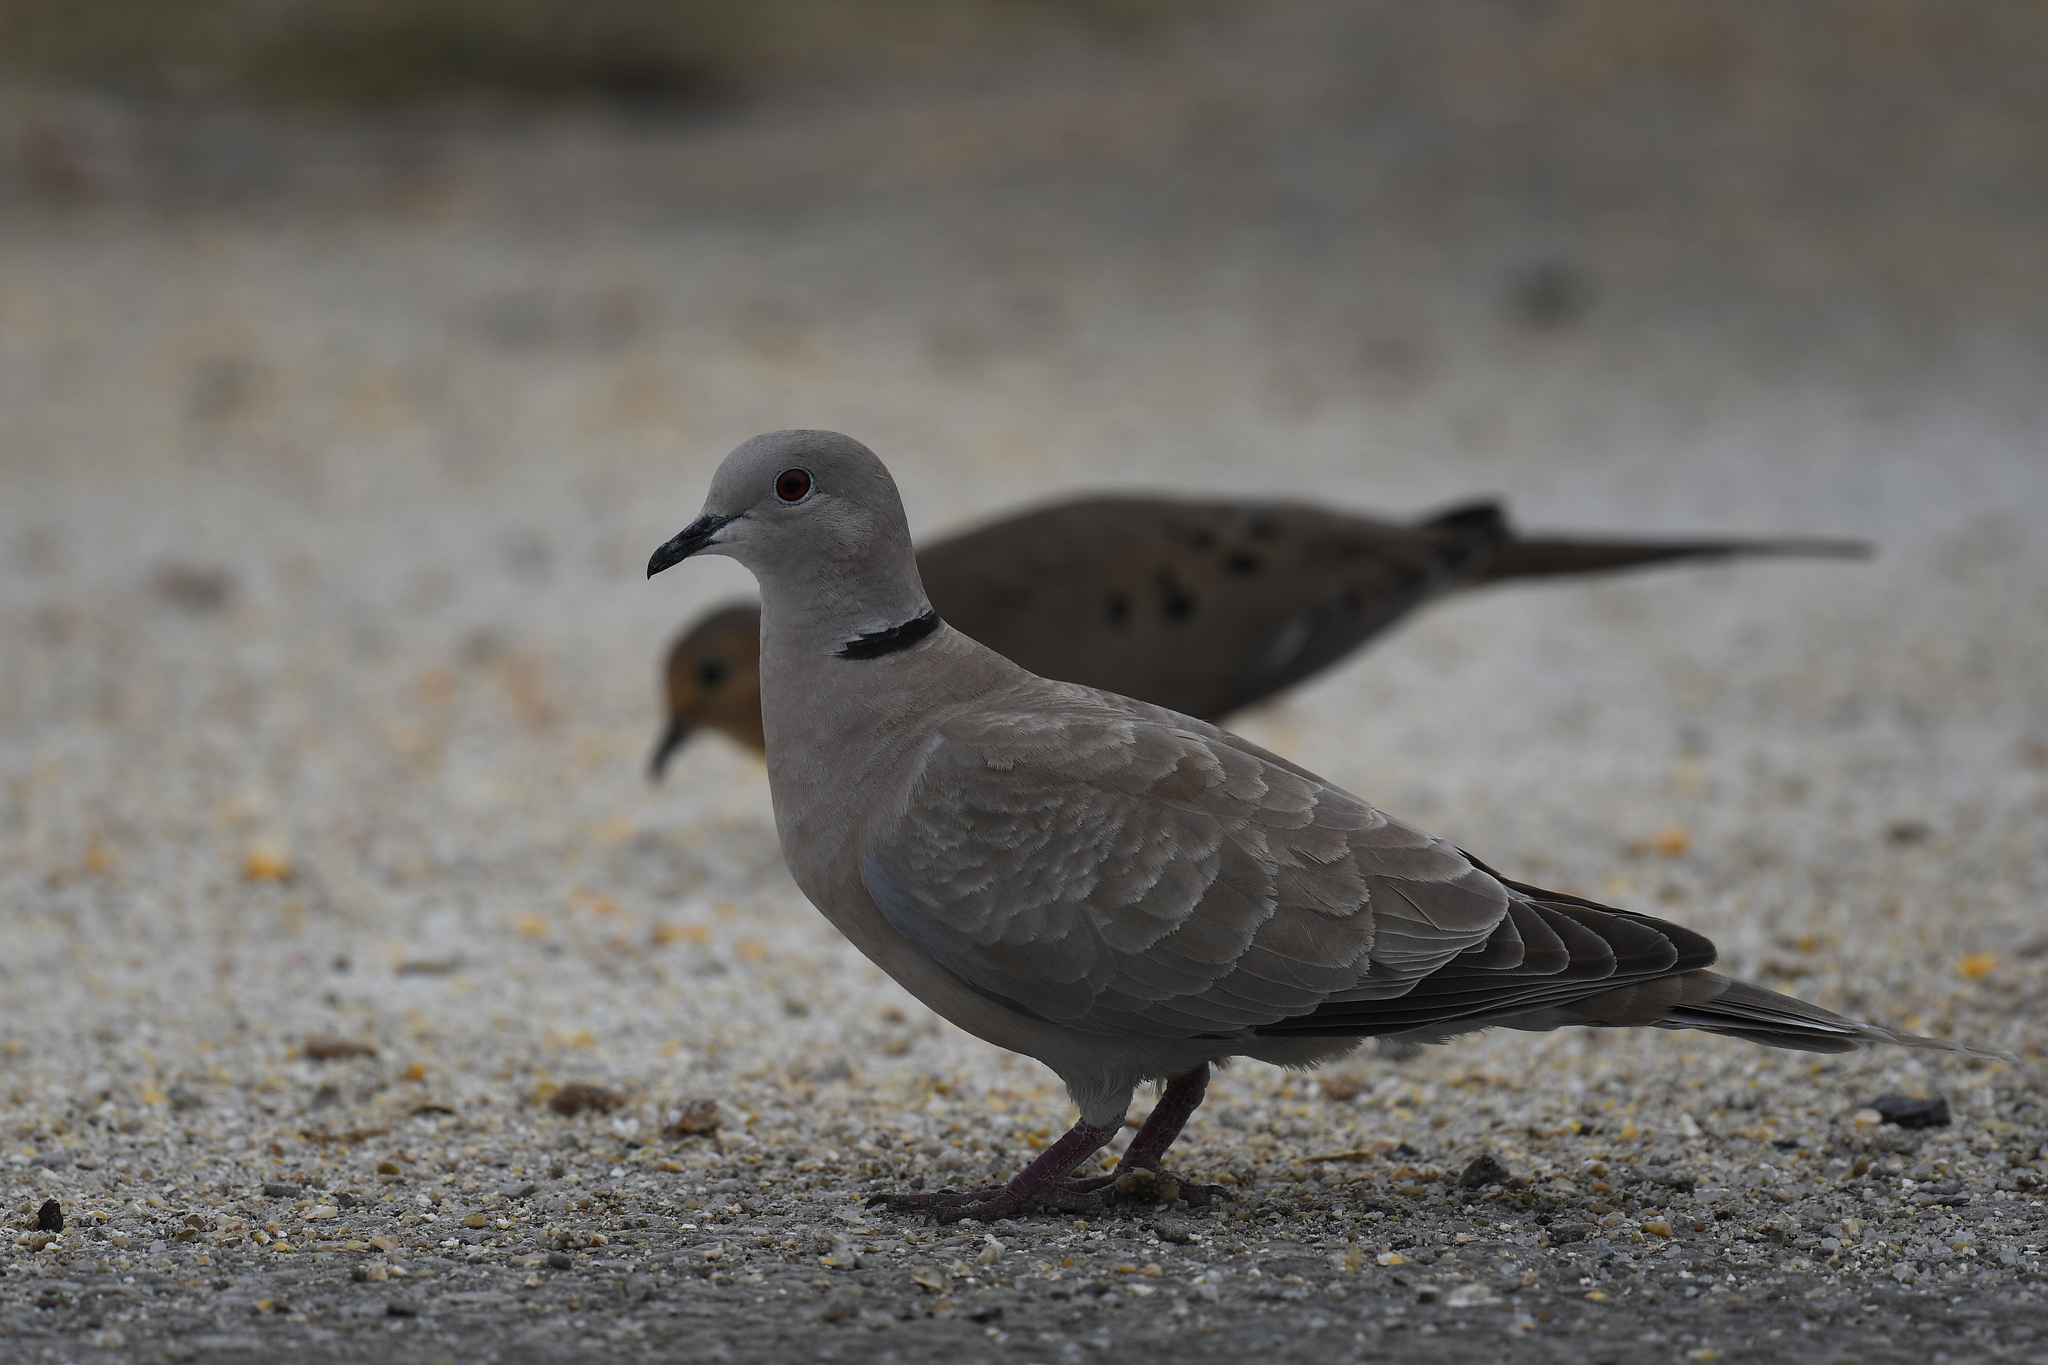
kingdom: Animalia
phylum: Chordata
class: Aves
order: Columbiformes
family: Columbidae
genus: Streptopelia
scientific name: Streptopelia decaocto
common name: Eurasian collared dove
